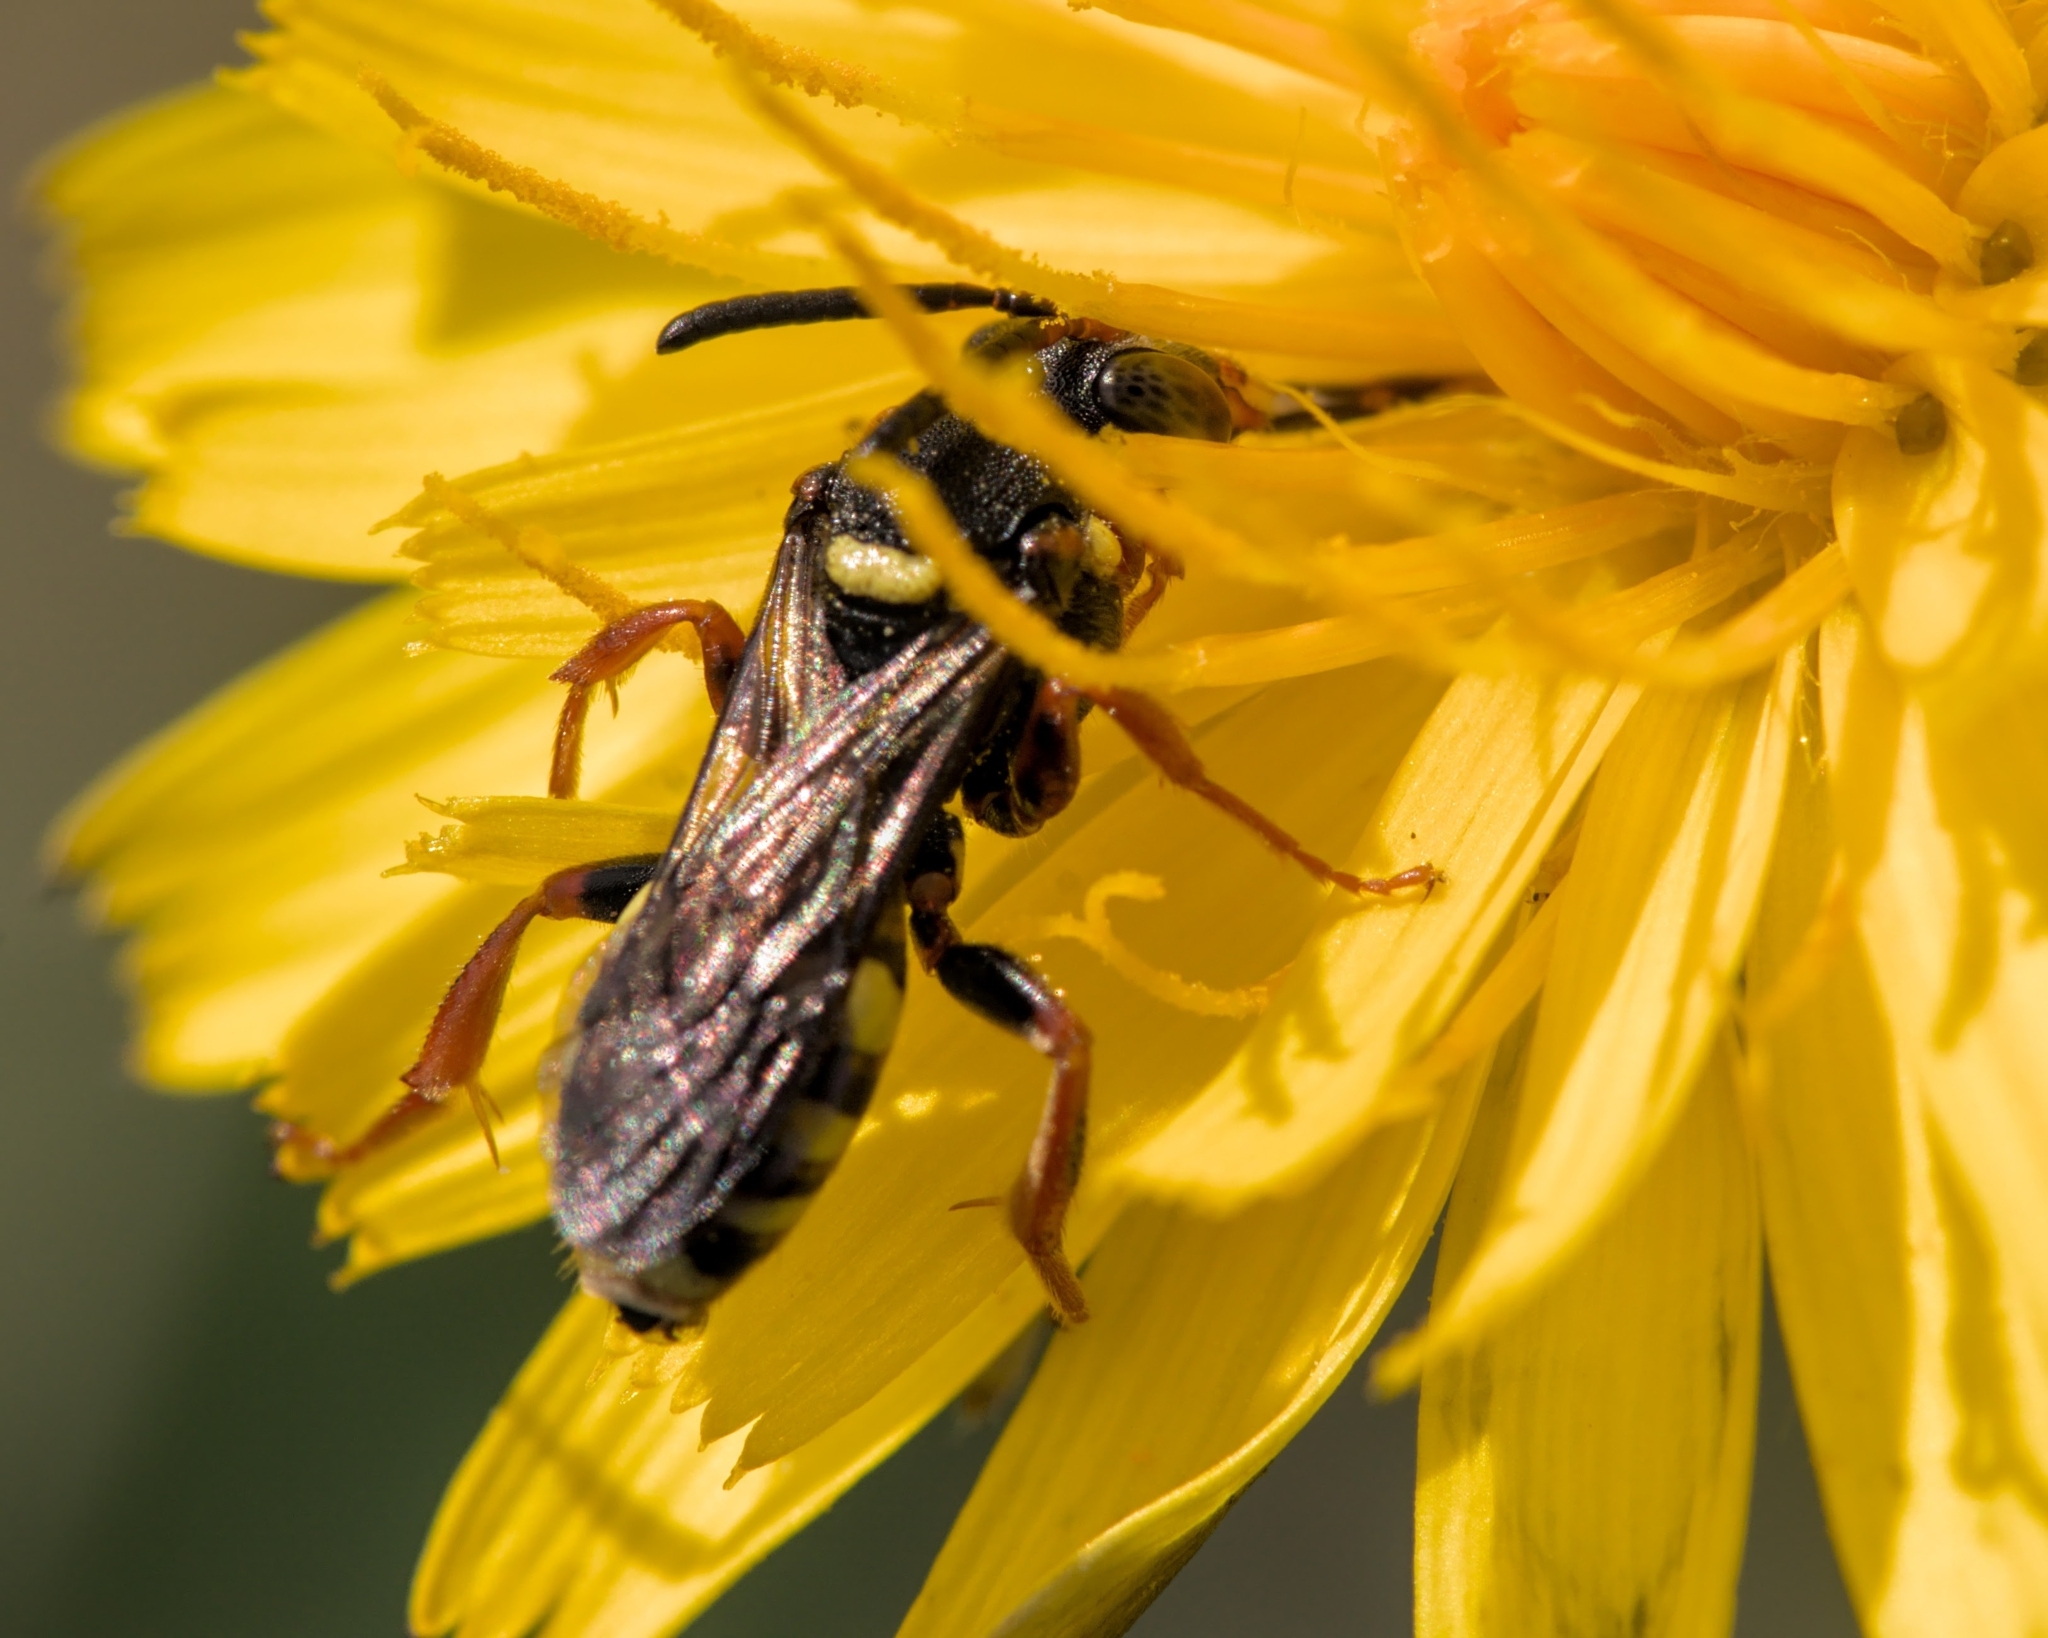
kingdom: Animalia
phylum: Arthropoda
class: Insecta
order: Hymenoptera
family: Apidae
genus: Nomada
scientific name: Nomada rufipes
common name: Black-horned nomad bee
